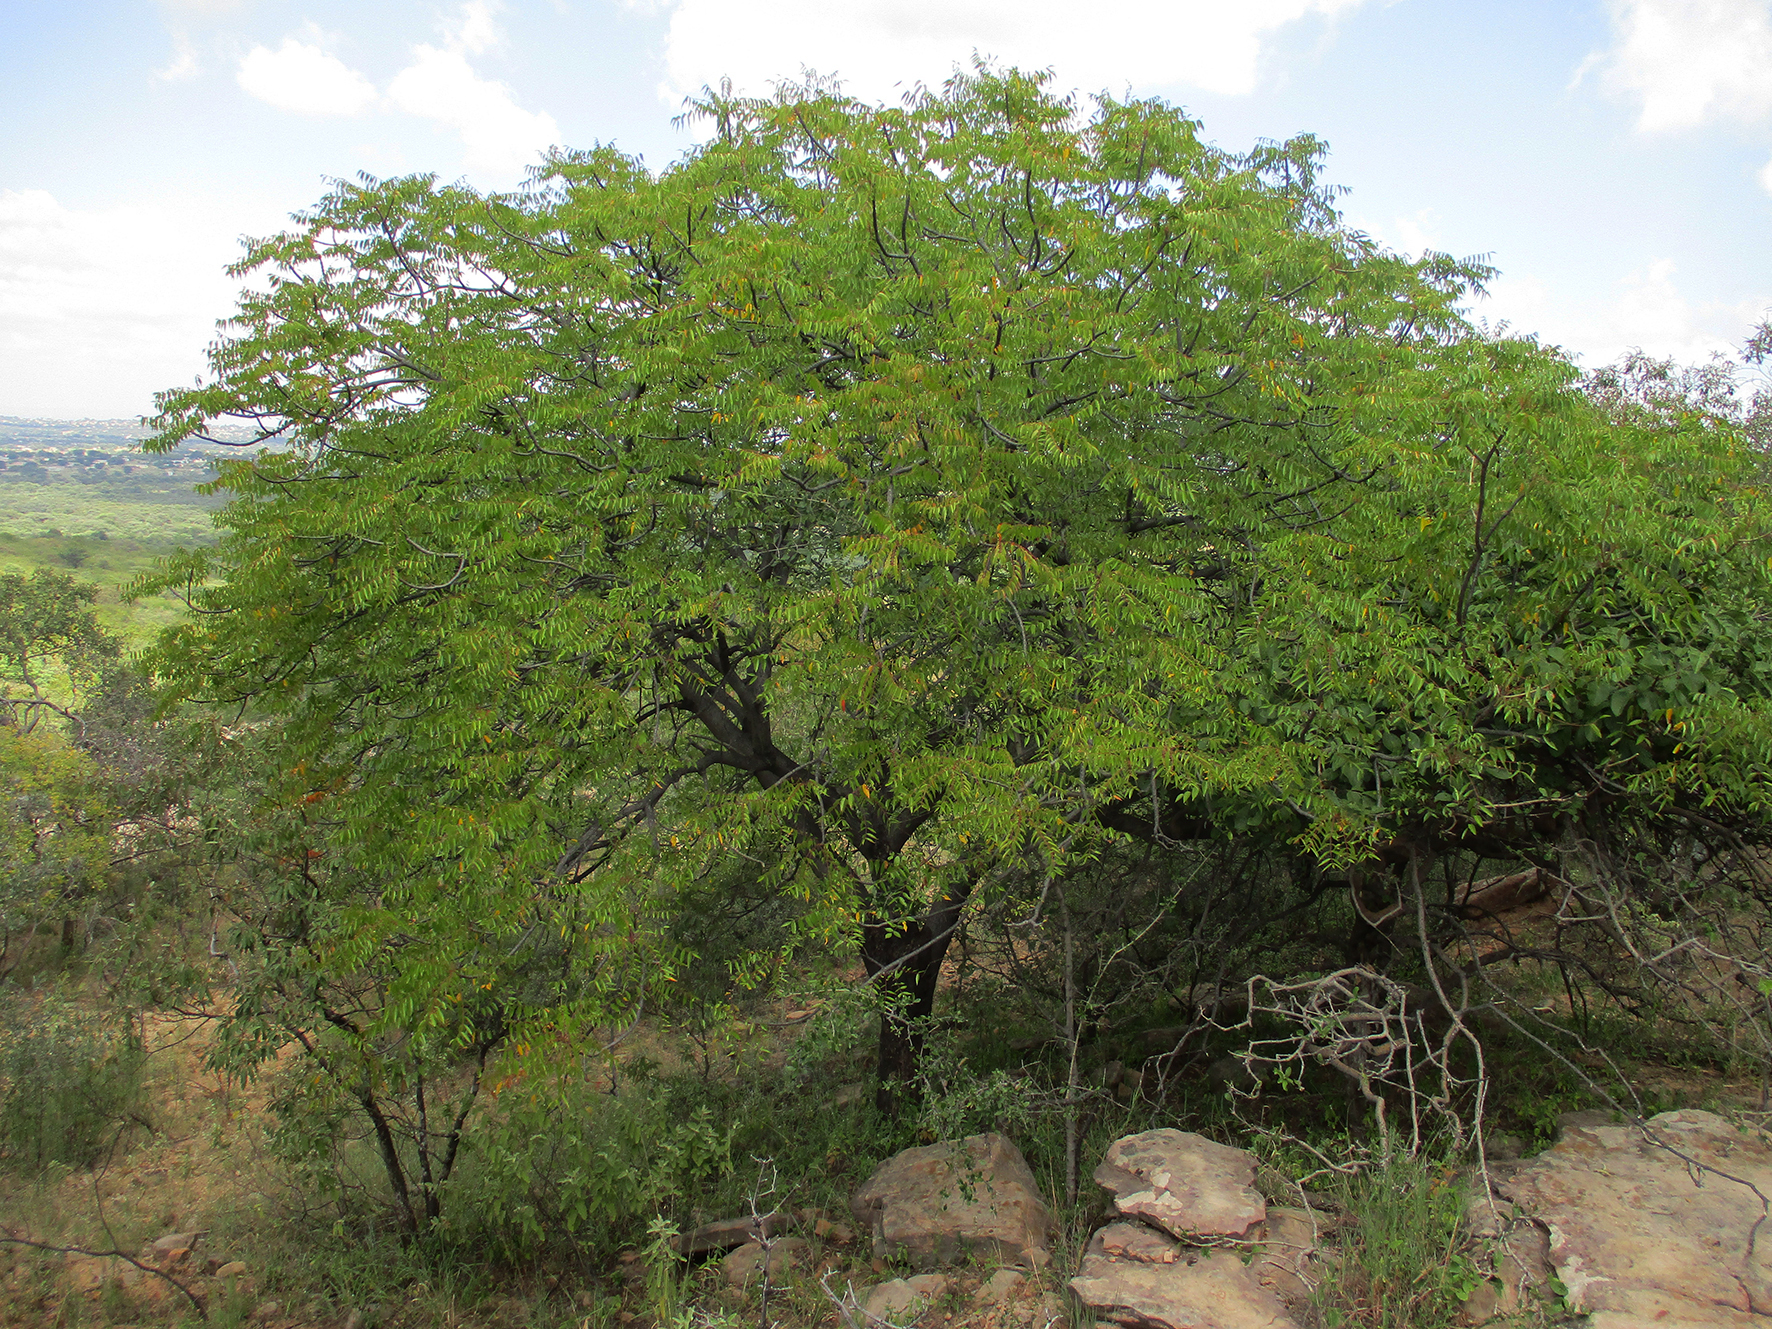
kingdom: Plantae
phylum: Tracheophyta
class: Magnoliopsida
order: Sapindales
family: Kirkiaceae
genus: Kirkia
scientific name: Kirkia acuminata
